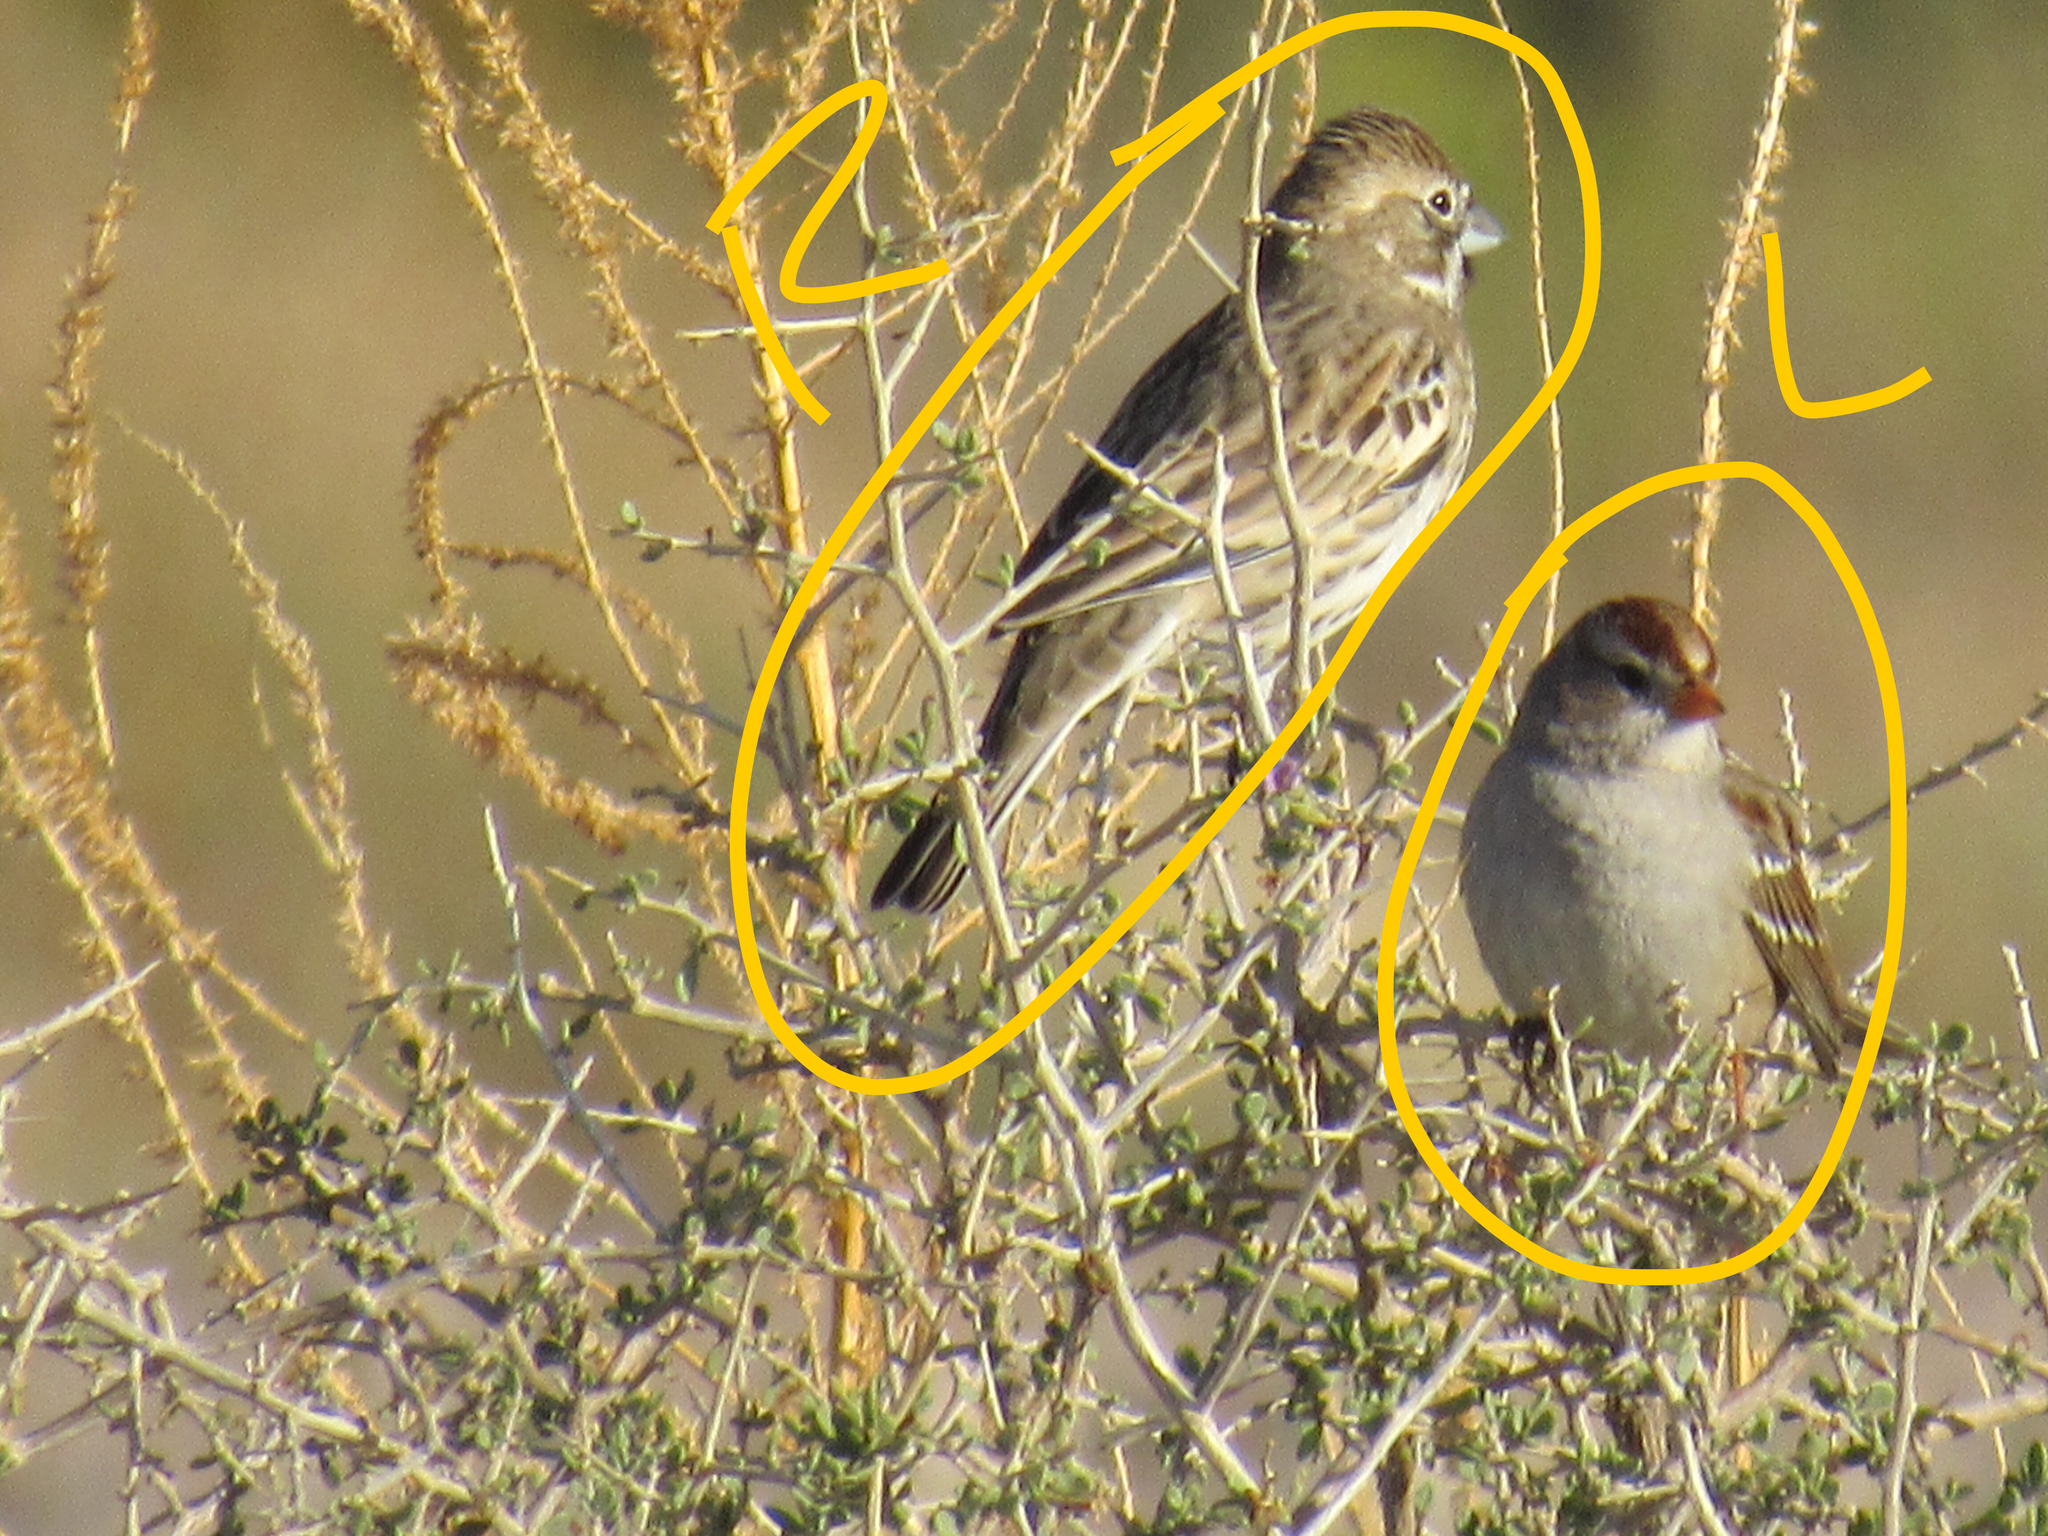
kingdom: Animalia
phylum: Chordata
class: Aves
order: Passeriformes
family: Passerellidae
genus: Zonotrichia
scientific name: Zonotrichia leucophrys
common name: White-crowned sparrow
